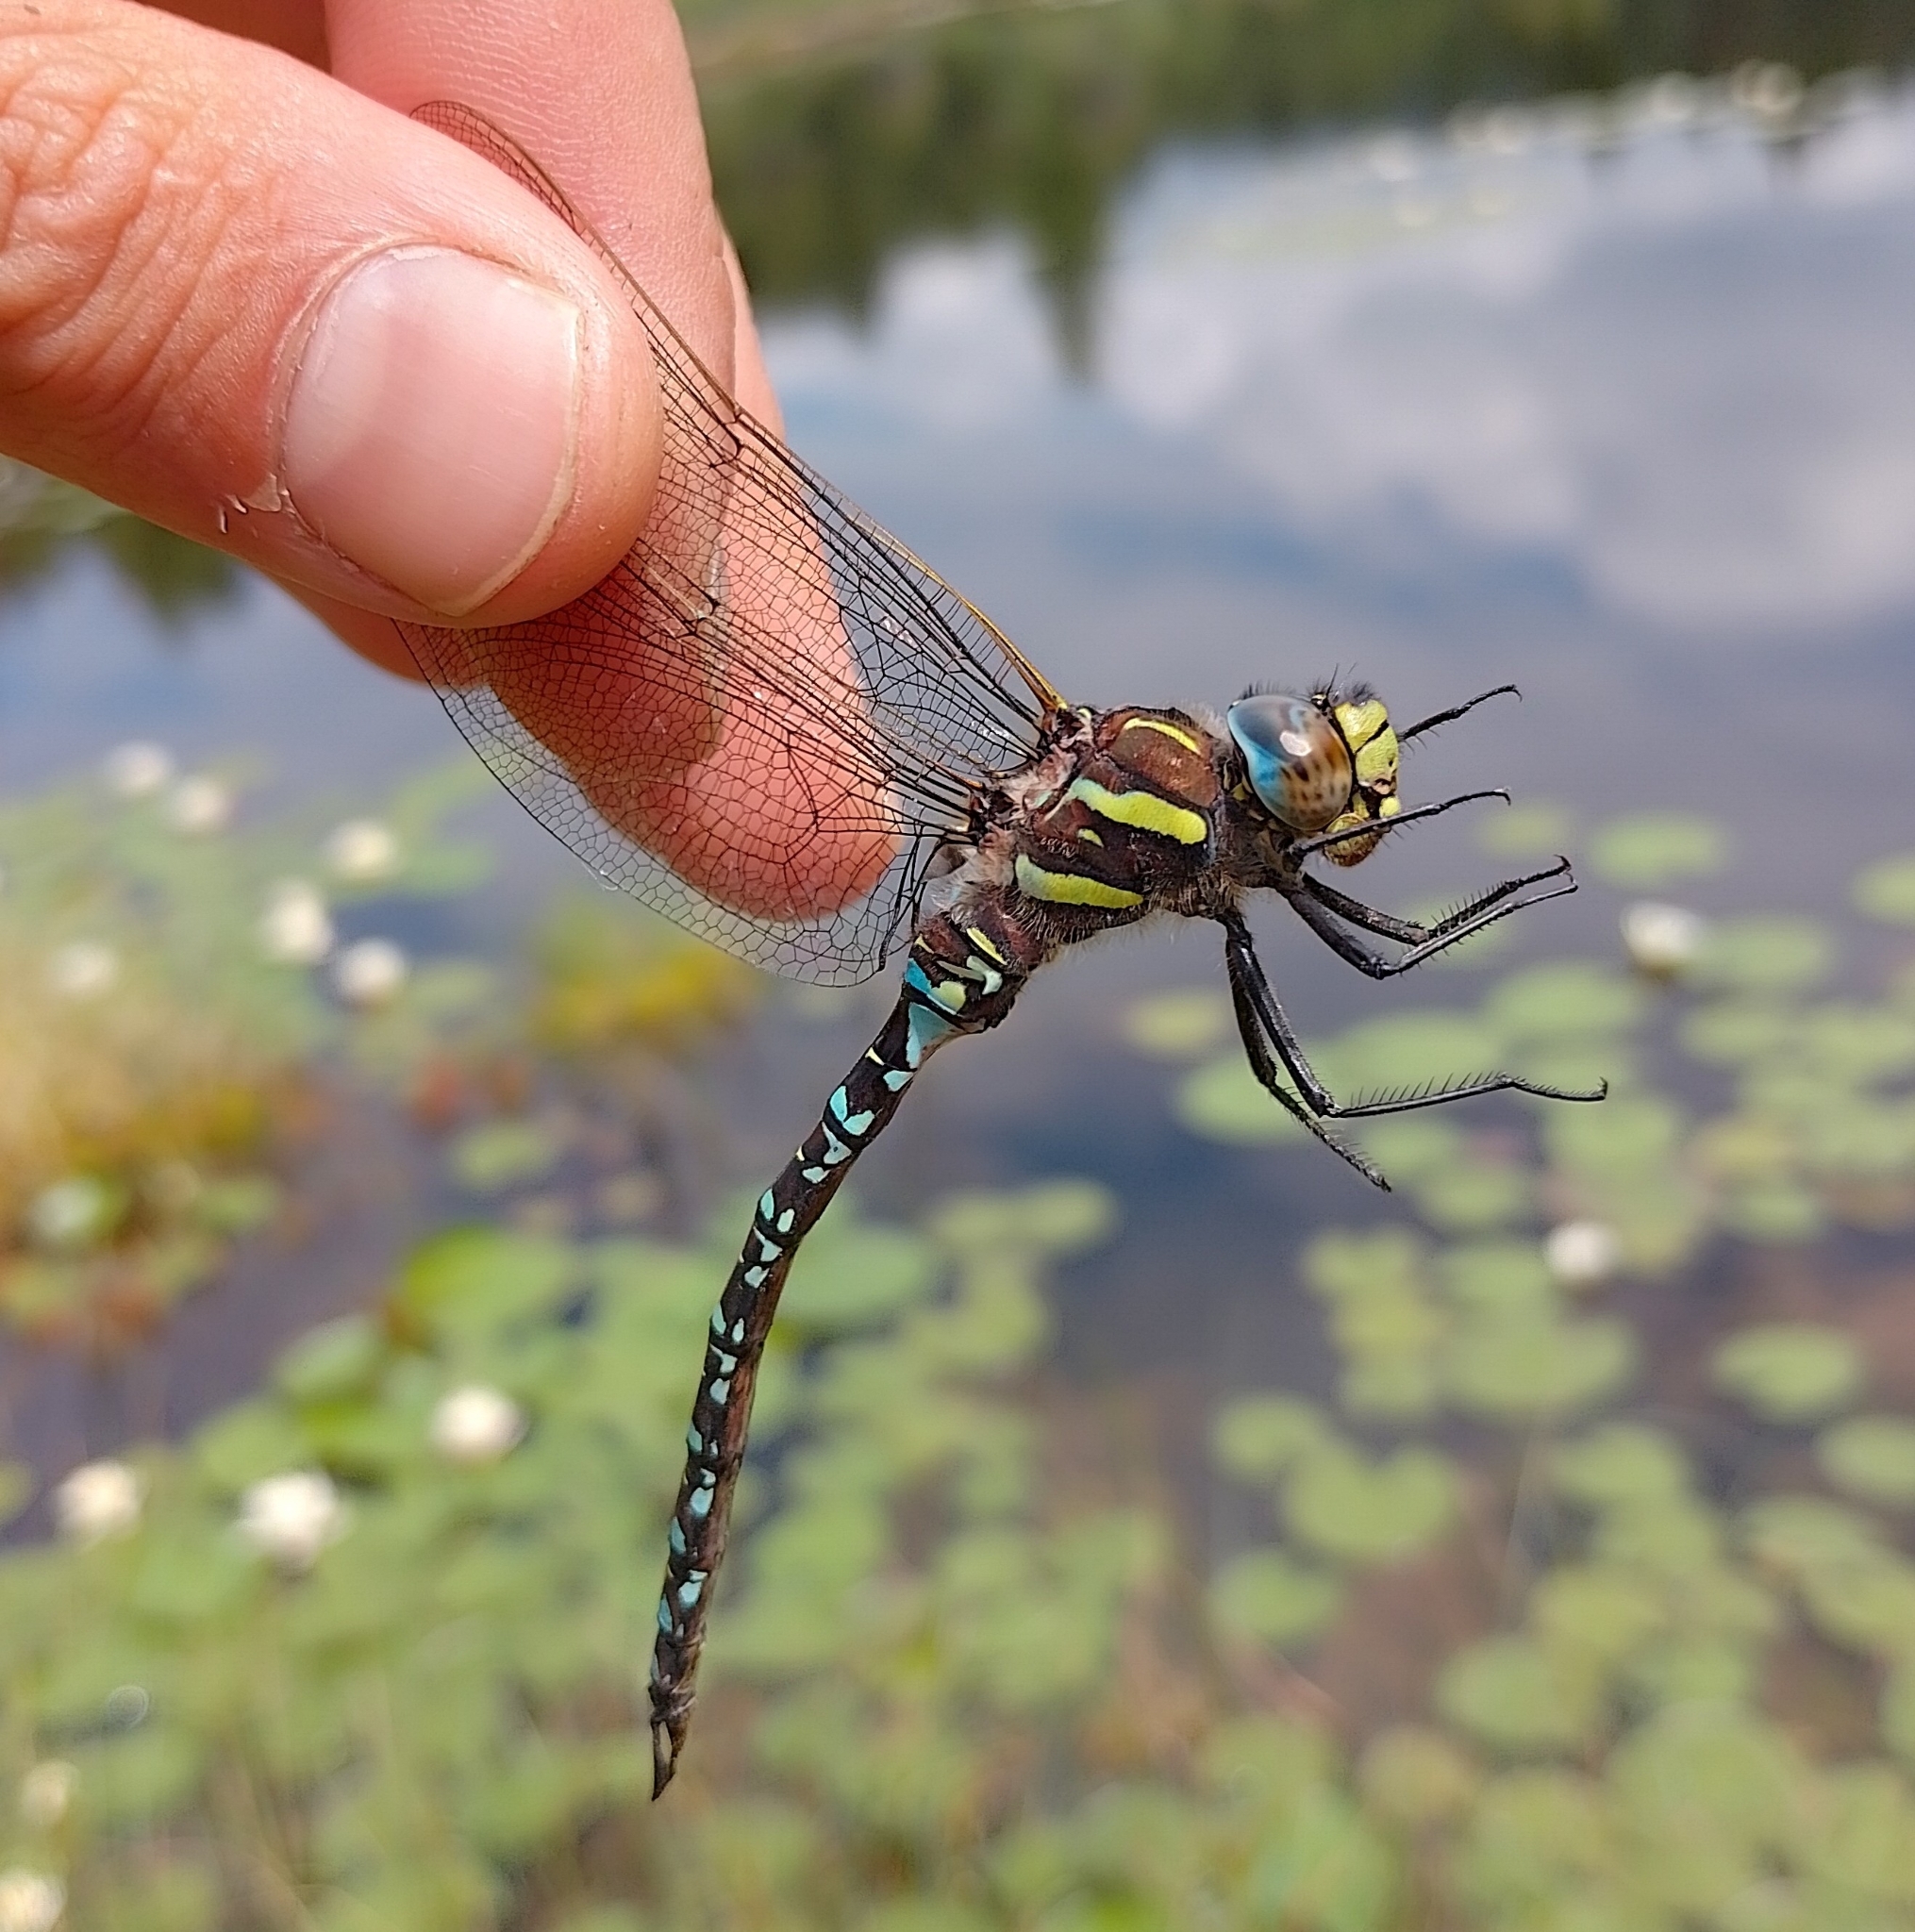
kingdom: Animalia
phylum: Arthropoda
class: Insecta
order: Odonata
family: Aeshnidae
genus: Aeshna
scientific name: Aeshna juncea
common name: Moorland hawker
